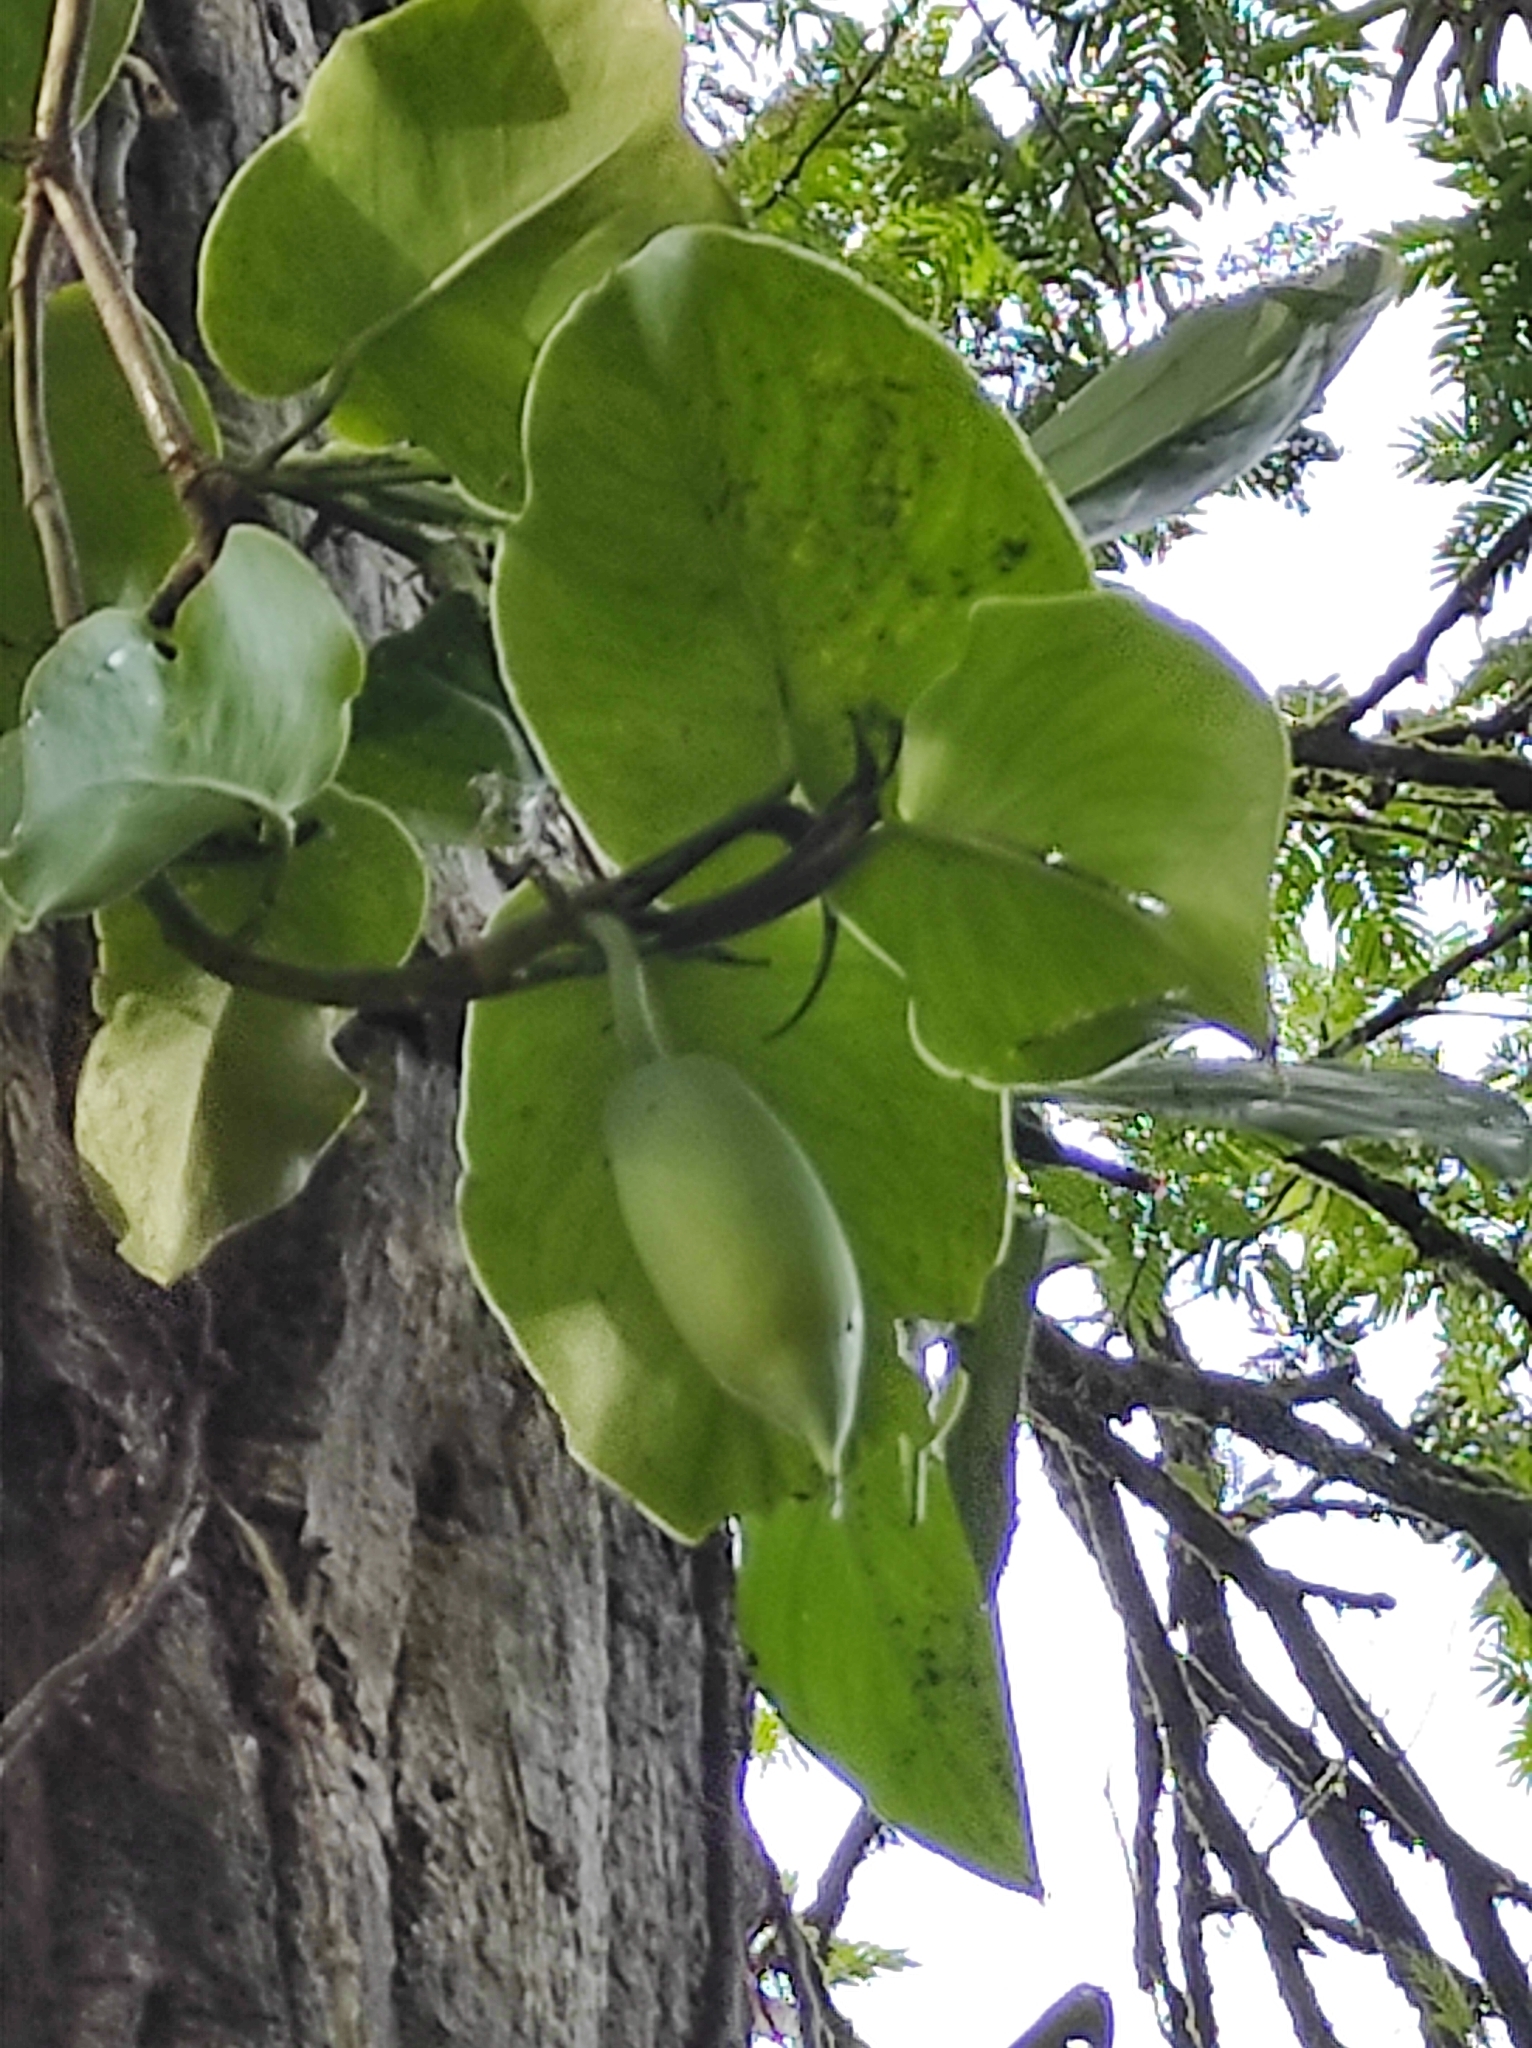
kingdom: Plantae
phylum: Tracheophyta
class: Liliopsida
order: Alismatales
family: Araceae
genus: Monstera
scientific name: Monstera tuberculata
